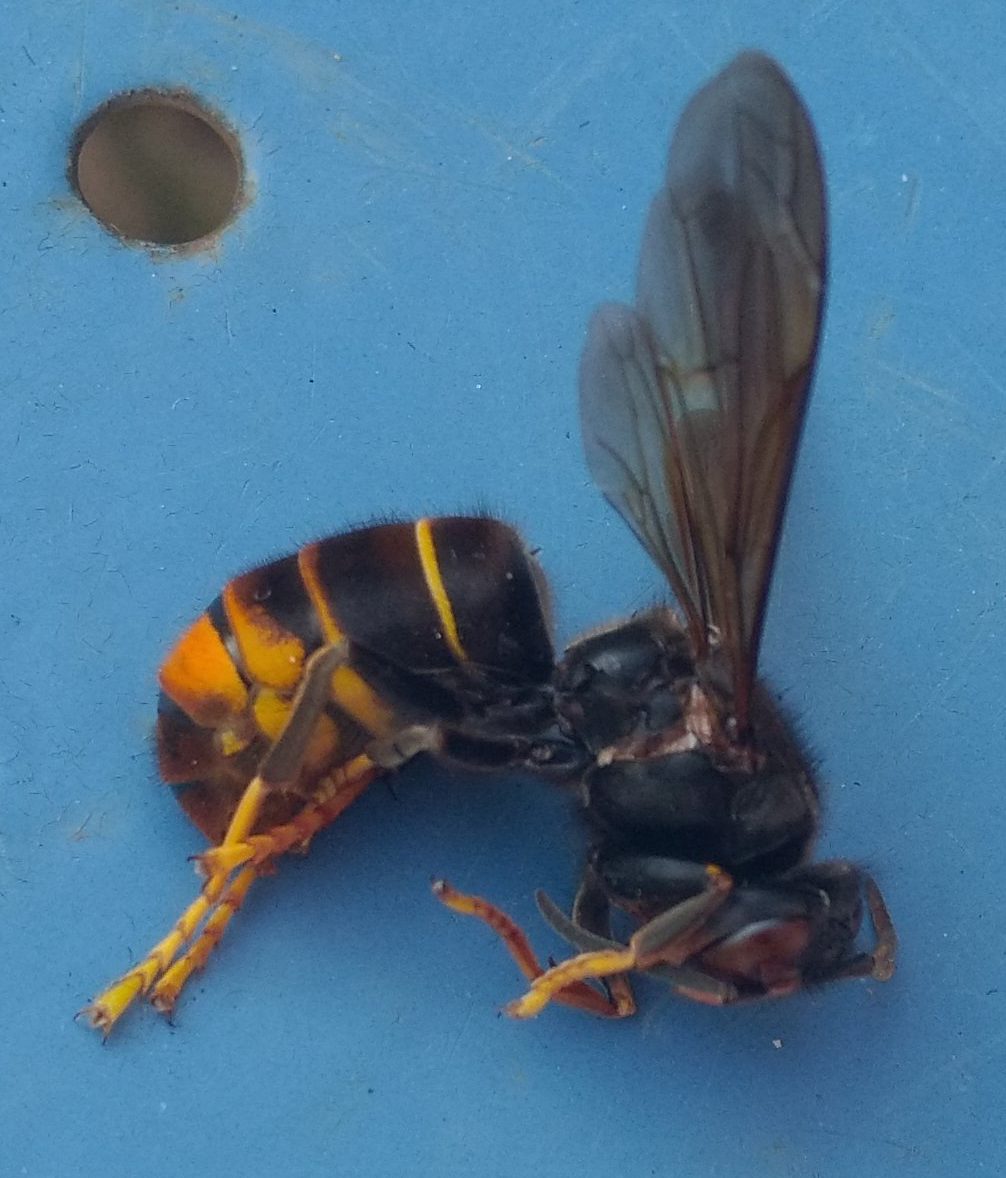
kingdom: Animalia
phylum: Arthropoda
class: Insecta
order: Hymenoptera
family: Vespidae
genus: Vespa
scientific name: Vespa velutina
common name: Asian hornet
